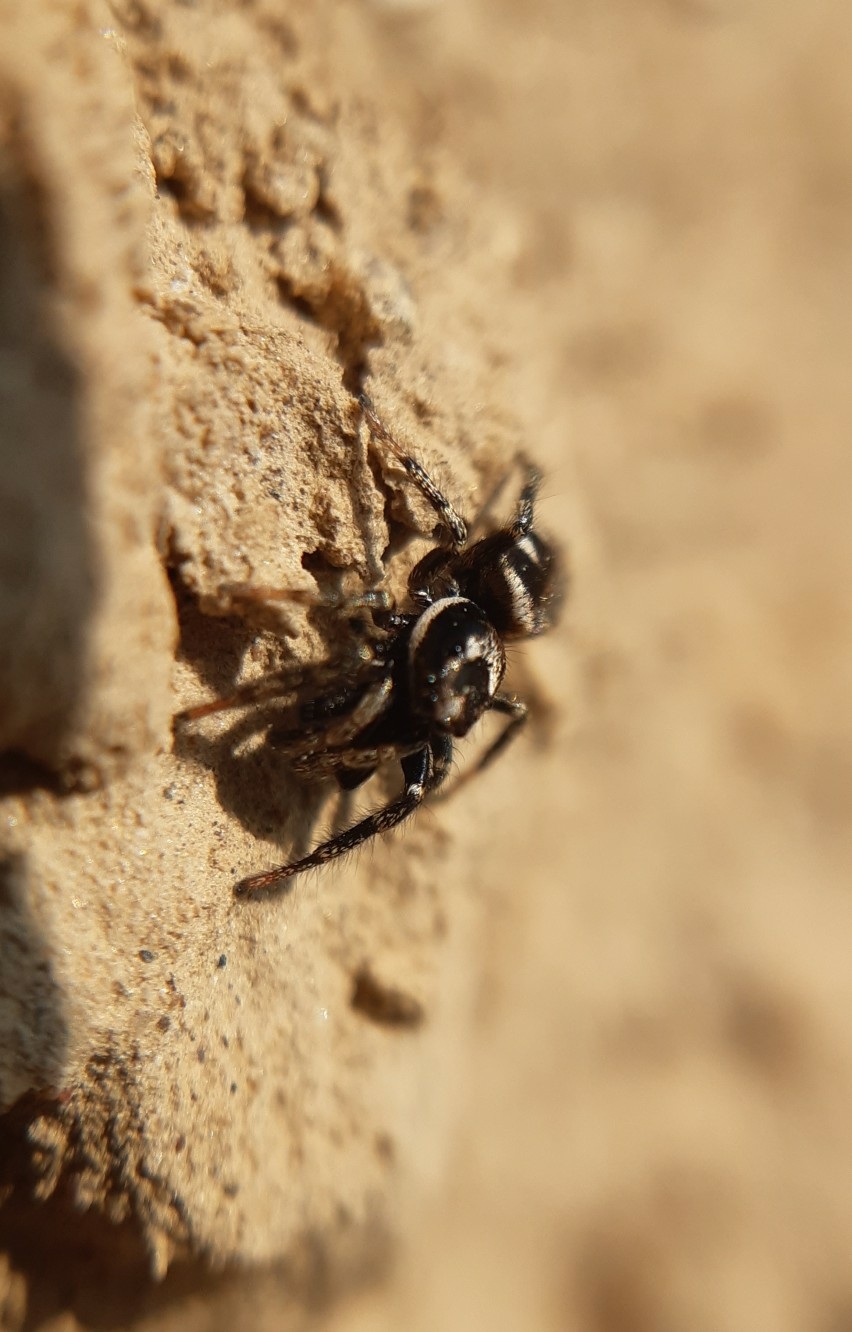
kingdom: Animalia
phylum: Arthropoda
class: Arachnida
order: Araneae
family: Salticidae
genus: Salticus
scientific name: Salticus scenicus
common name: Zebra jumper
